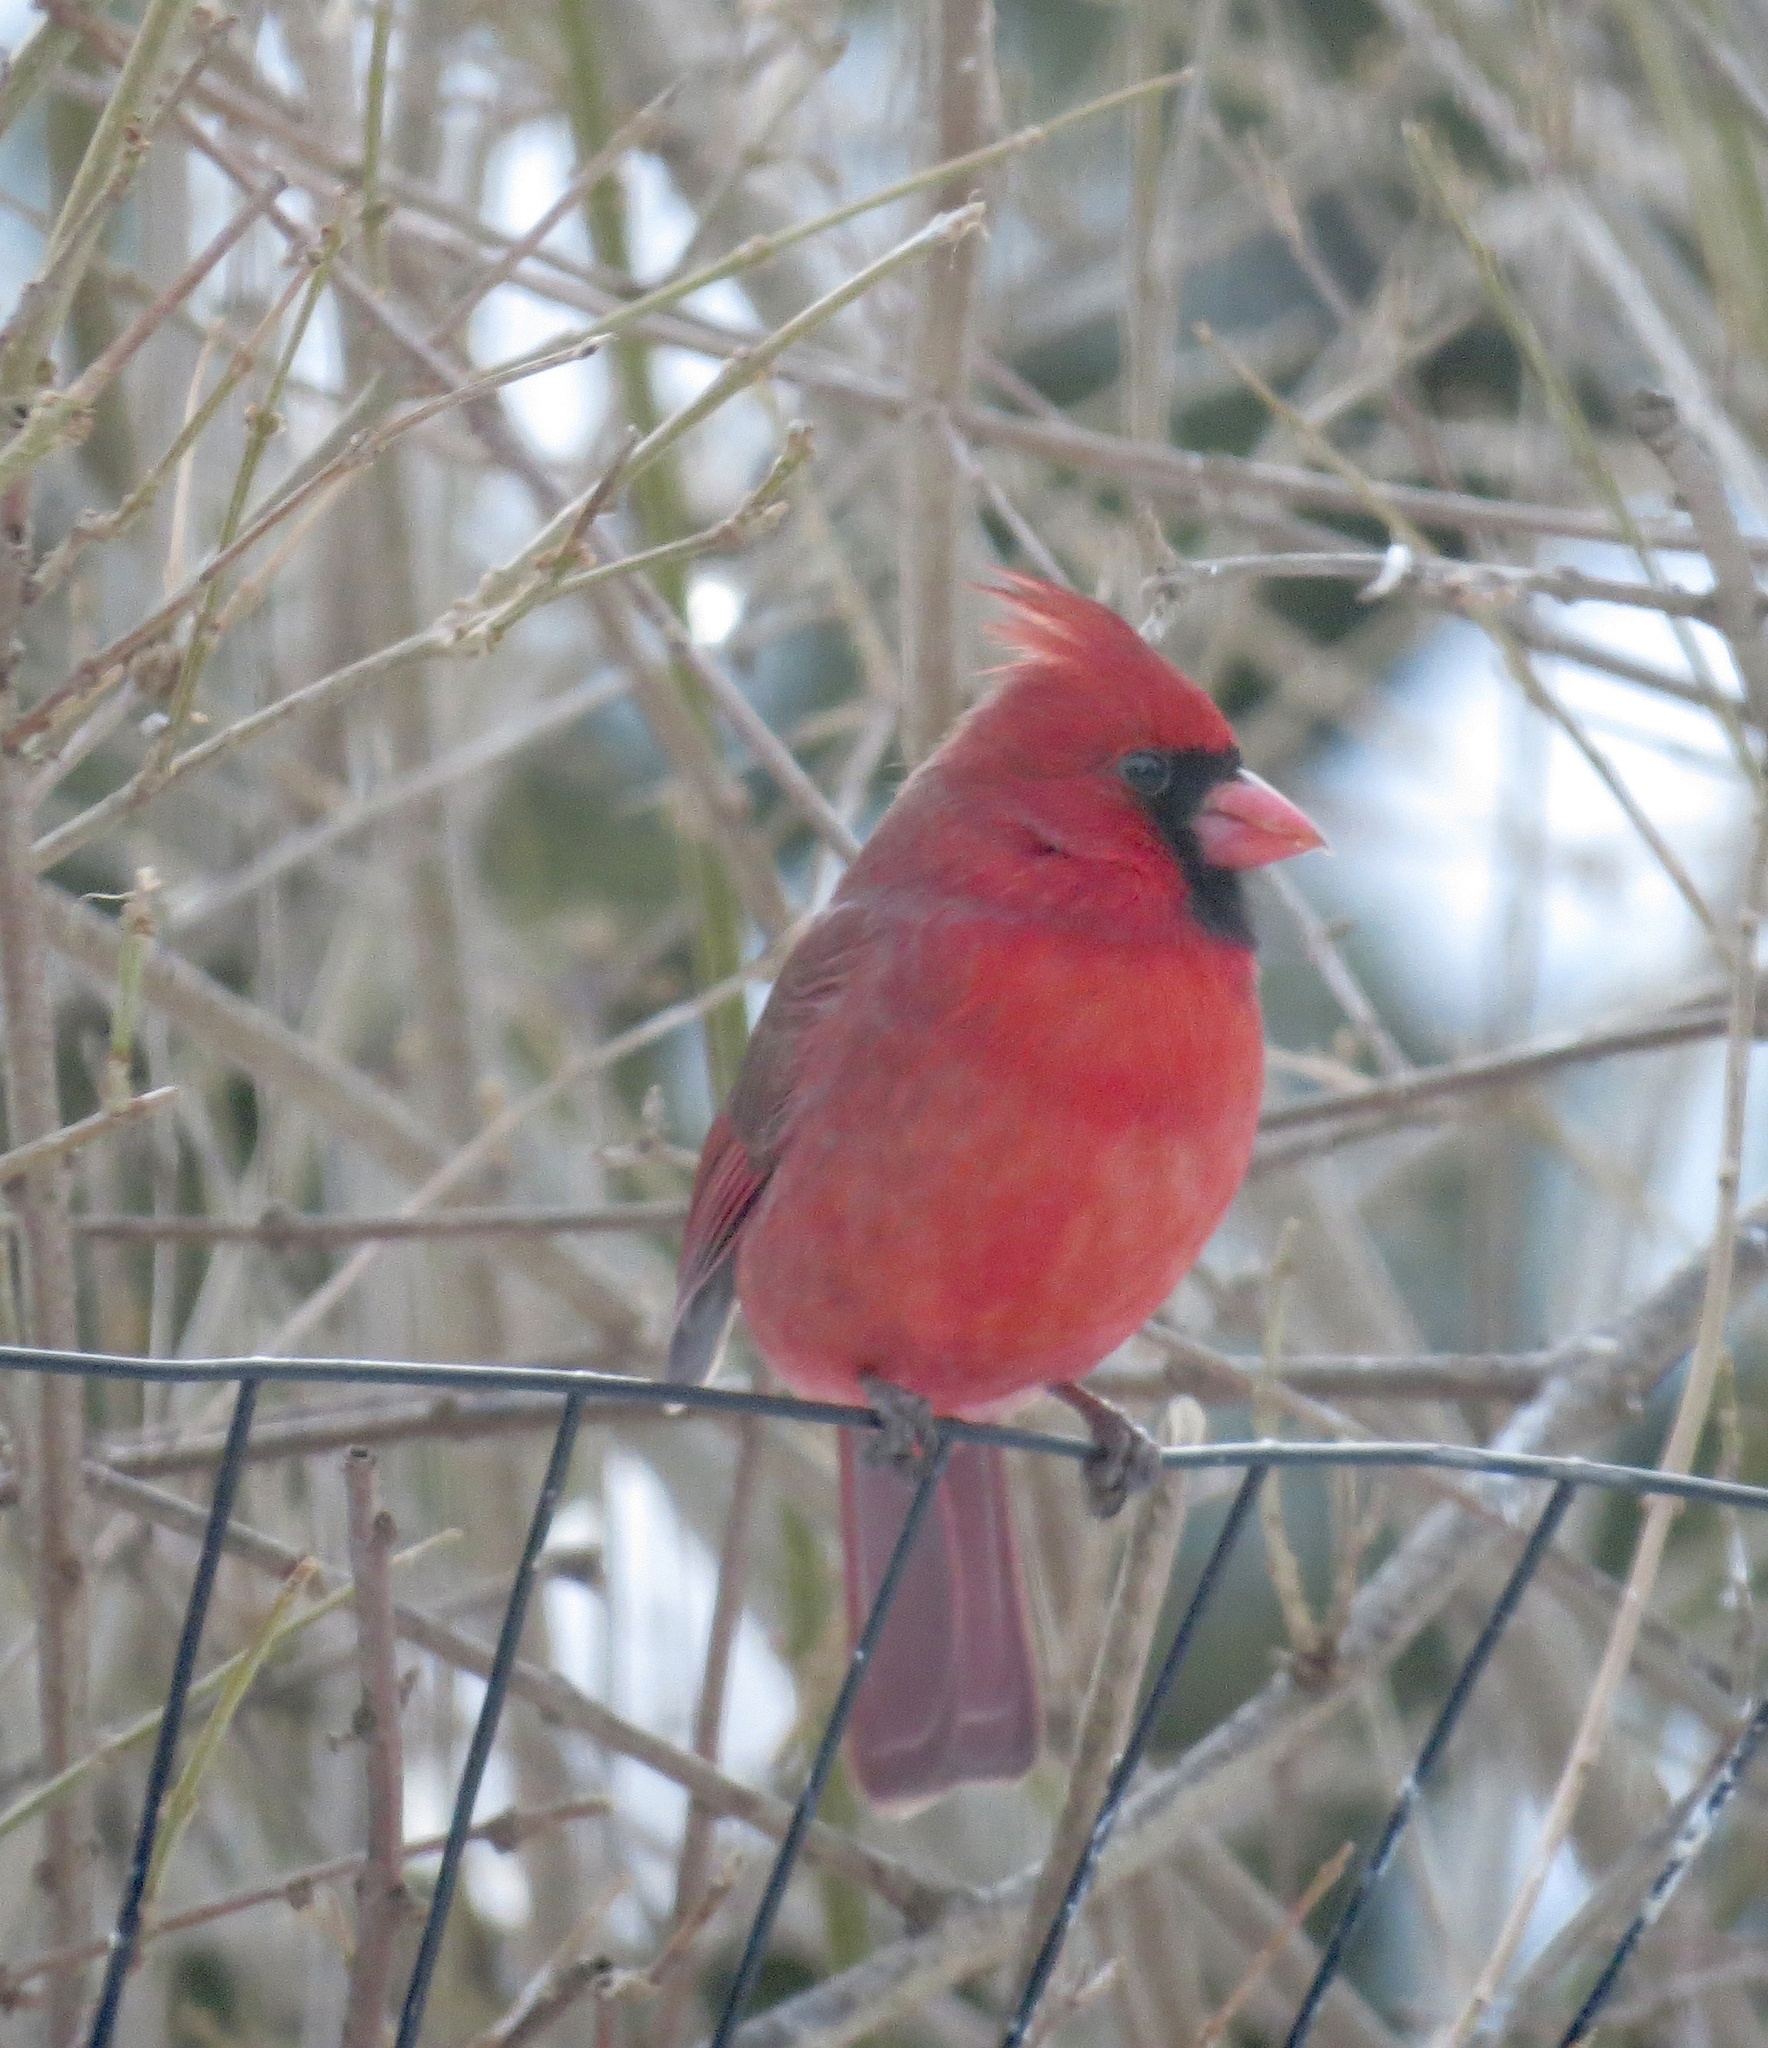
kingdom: Animalia
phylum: Chordata
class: Aves
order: Passeriformes
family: Cardinalidae
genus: Cardinalis
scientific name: Cardinalis cardinalis
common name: Northern cardinal
